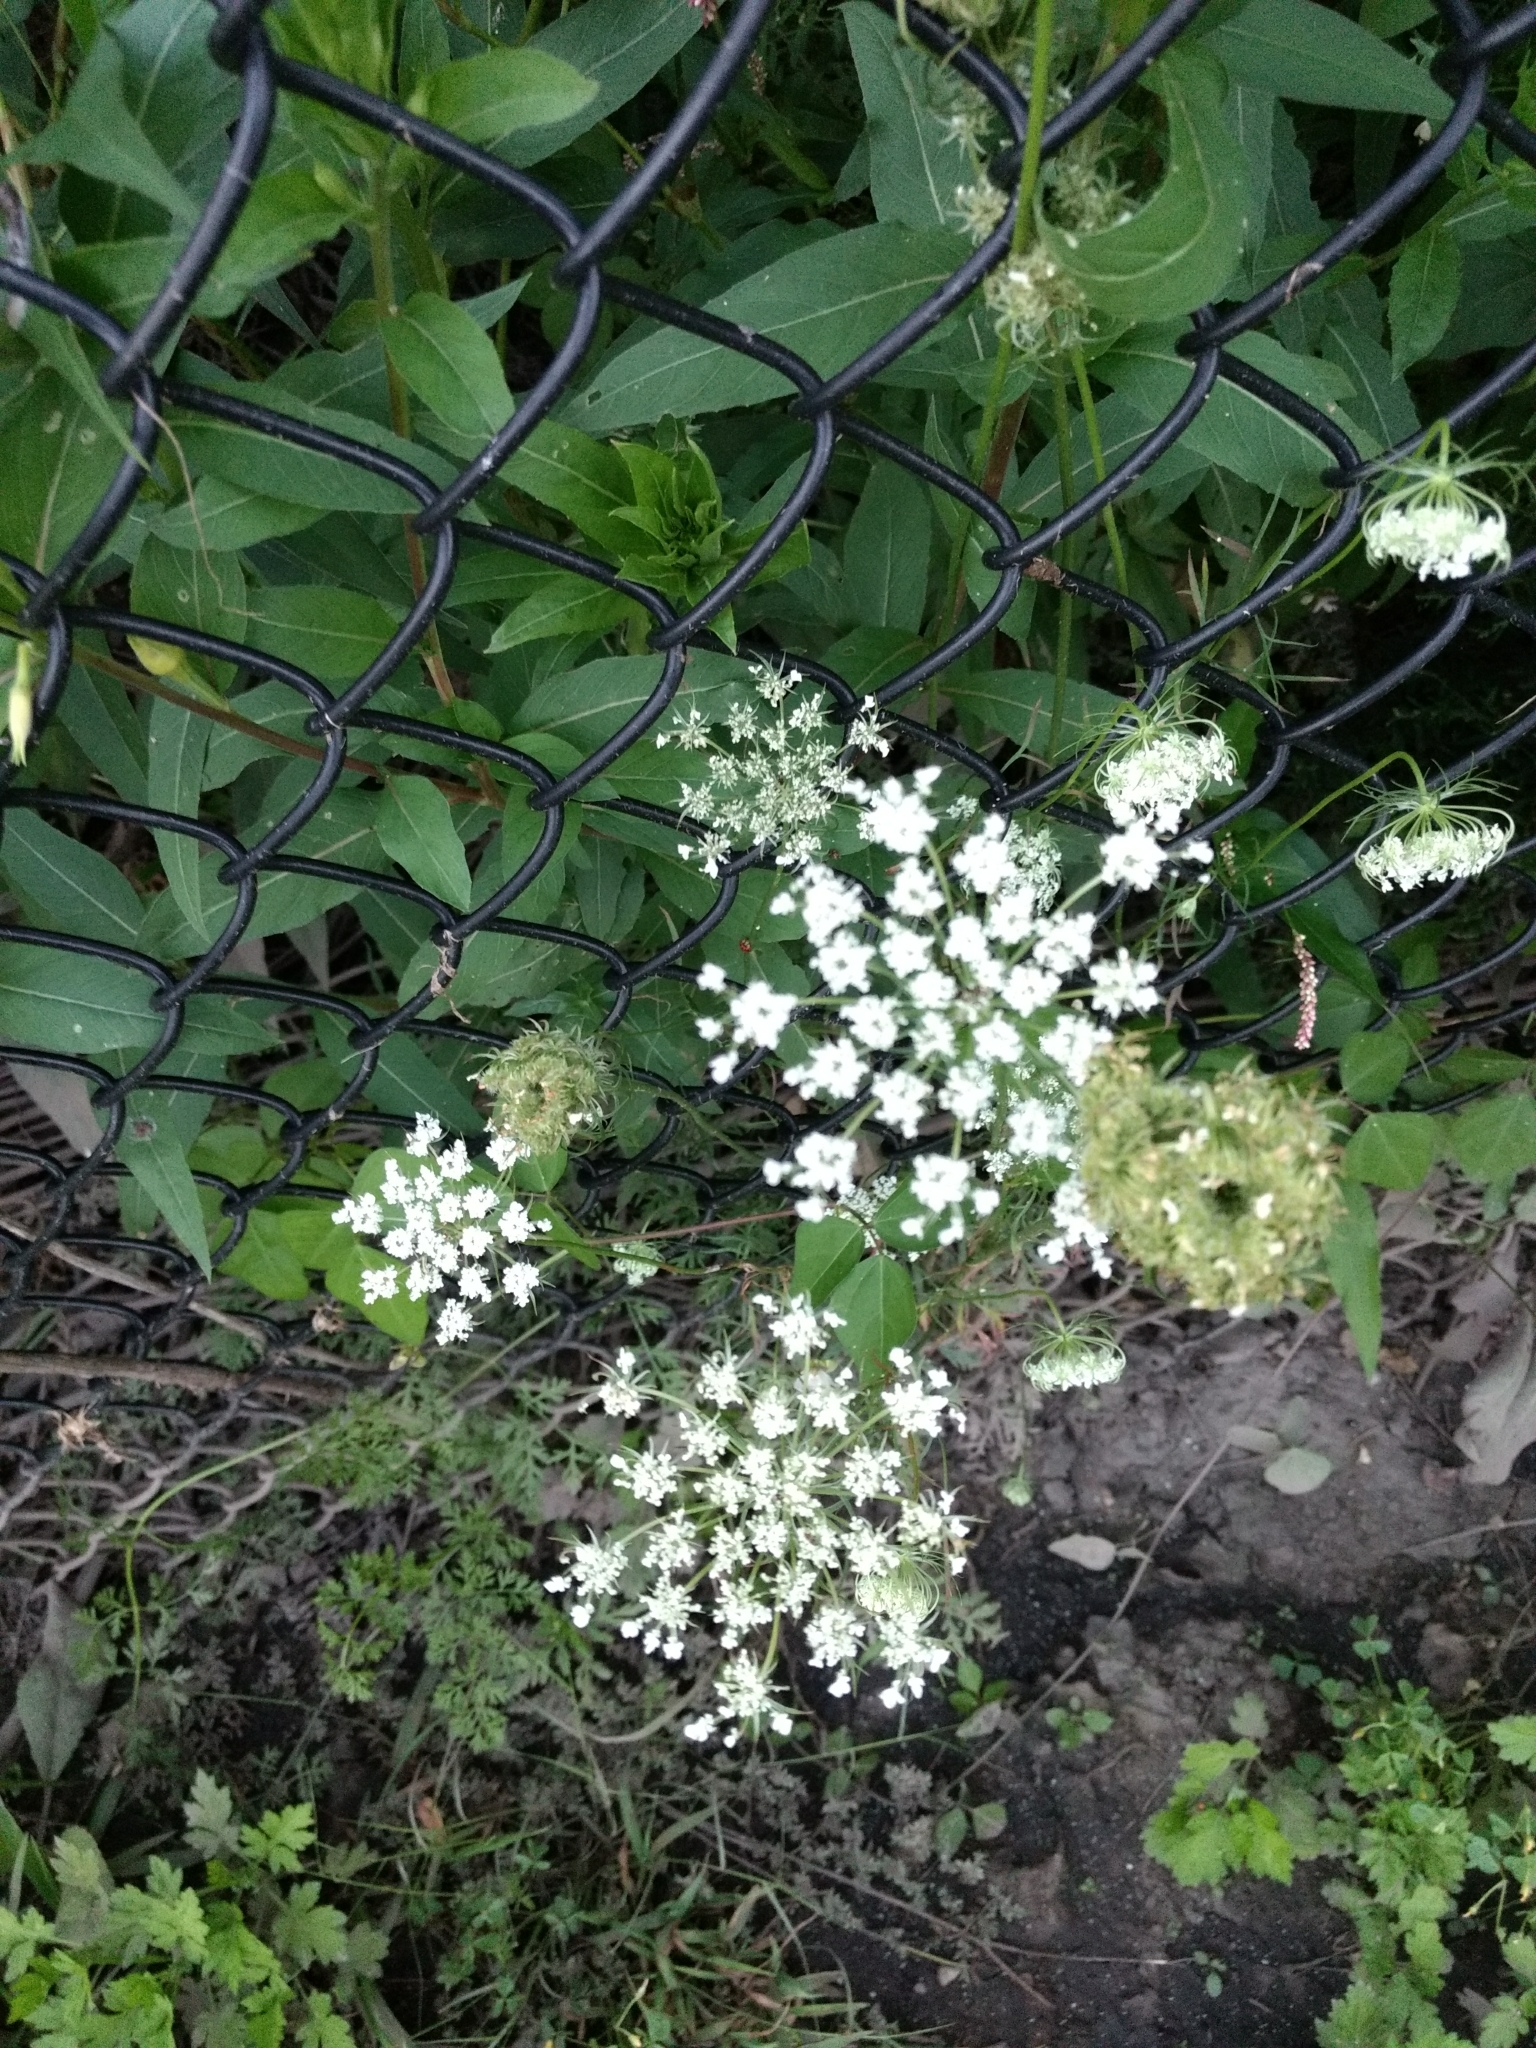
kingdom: Plantae
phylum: Tracheophyta
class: Magnoliopsida
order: Apiales
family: Apiaceae
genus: Daucus
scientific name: Daucus carota
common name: Wild carrot
